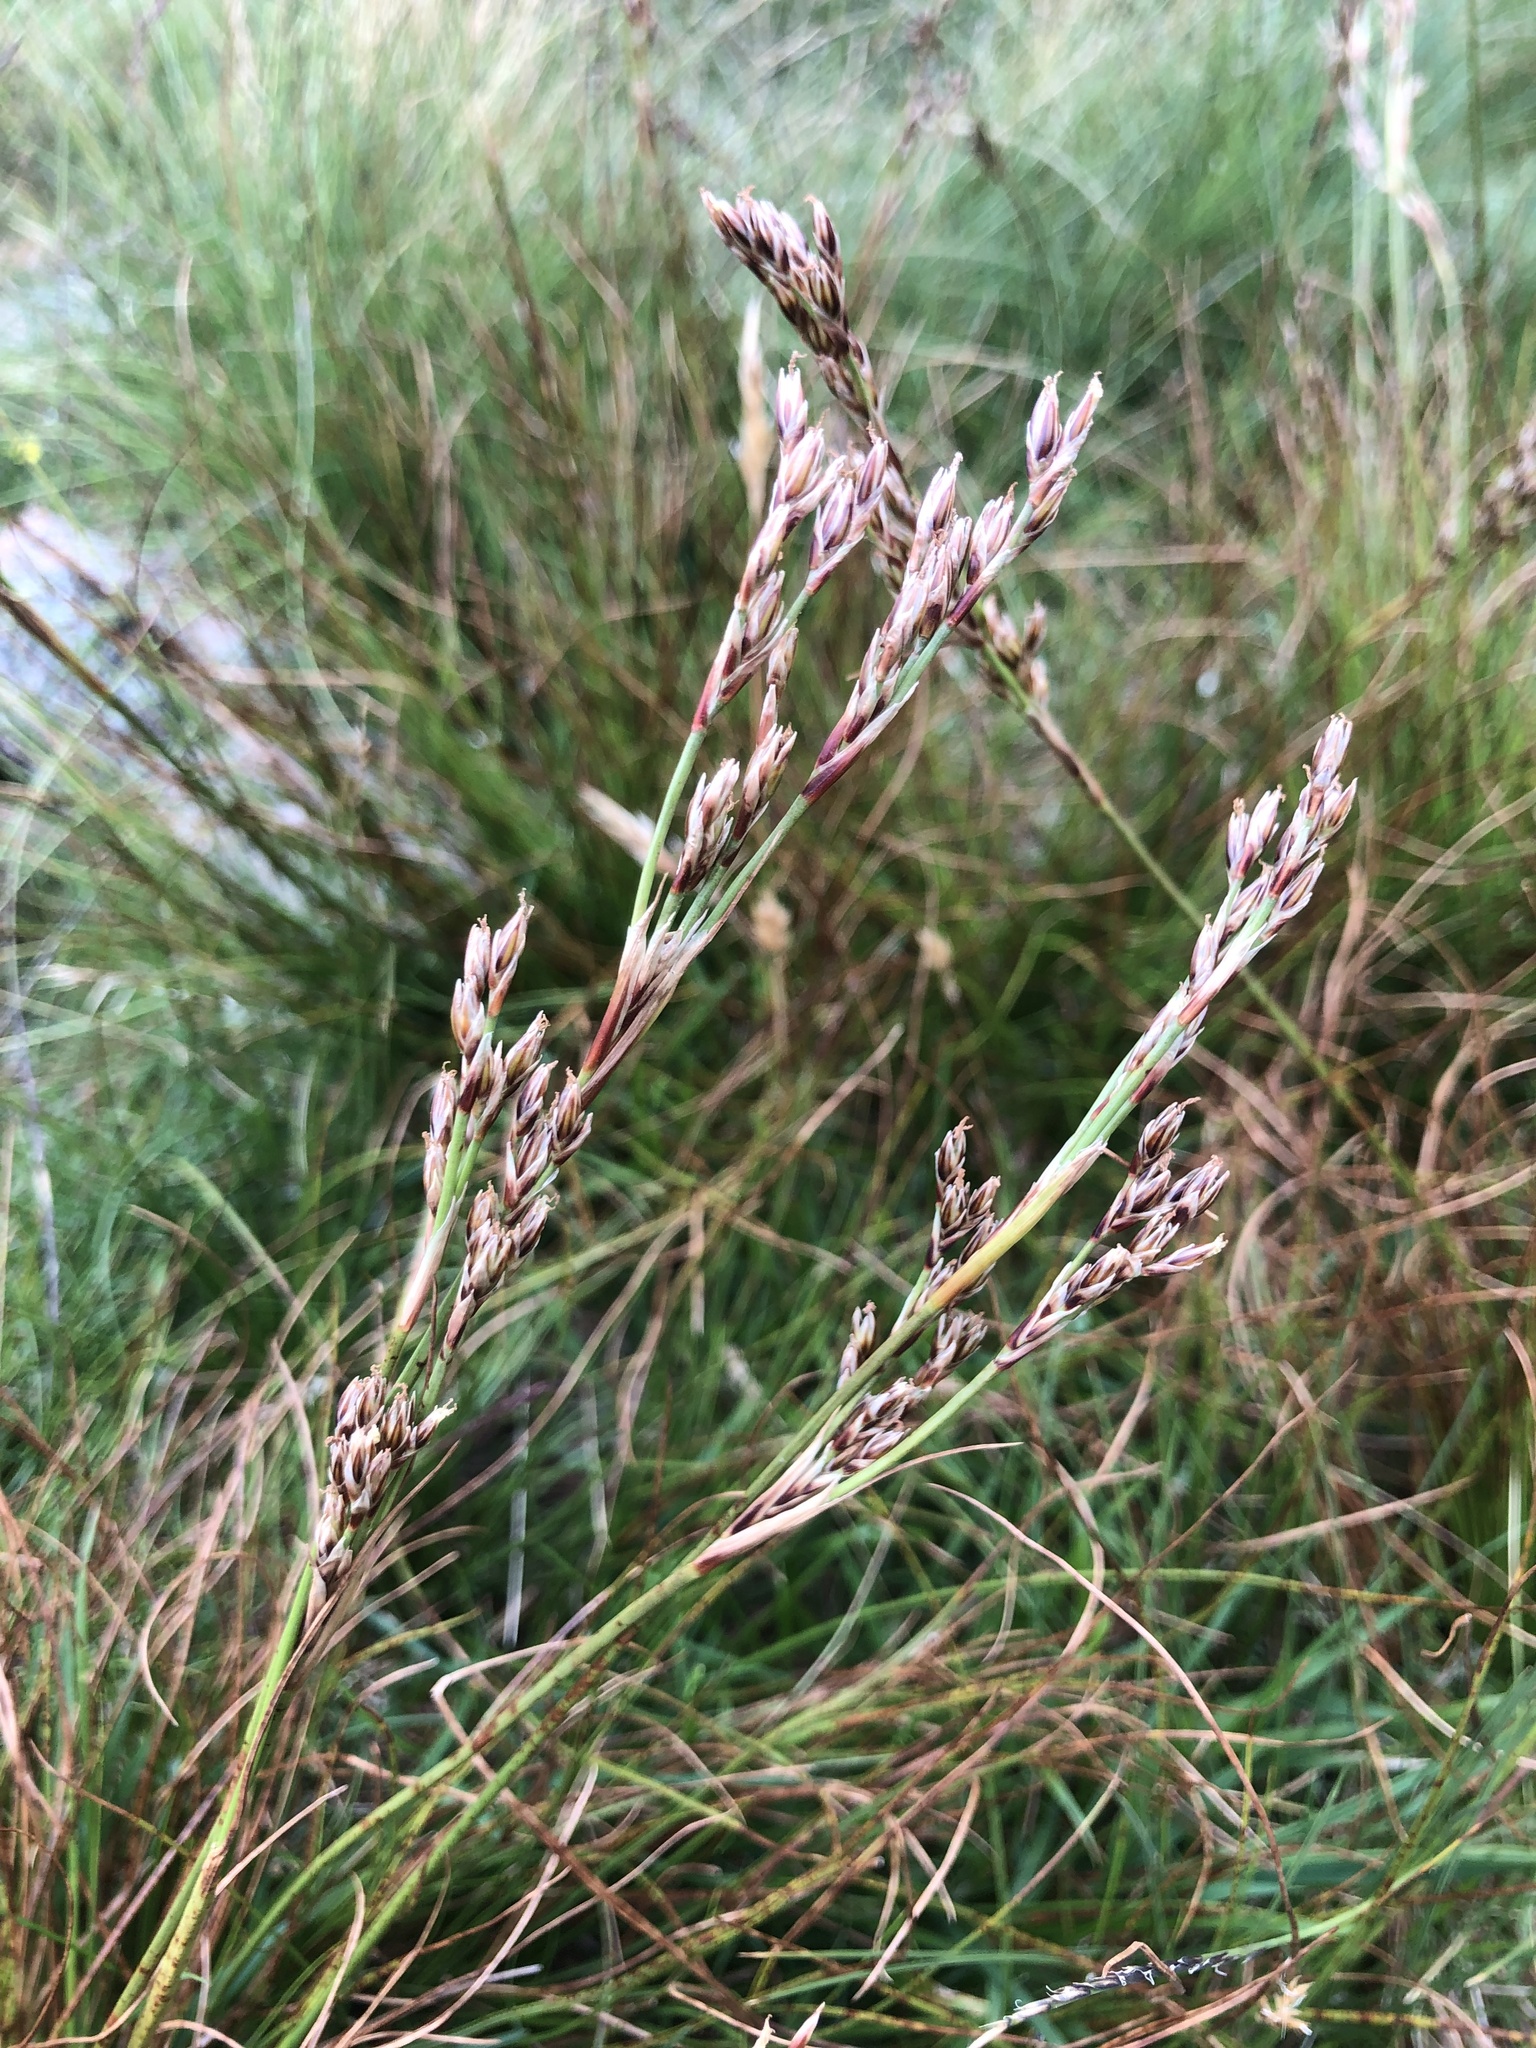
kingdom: Plantae
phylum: Tracheophyta
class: Liliopsida
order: Poales
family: Juncaceae
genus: Juncus
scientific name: Juncus squarrosus
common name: Heath rush
